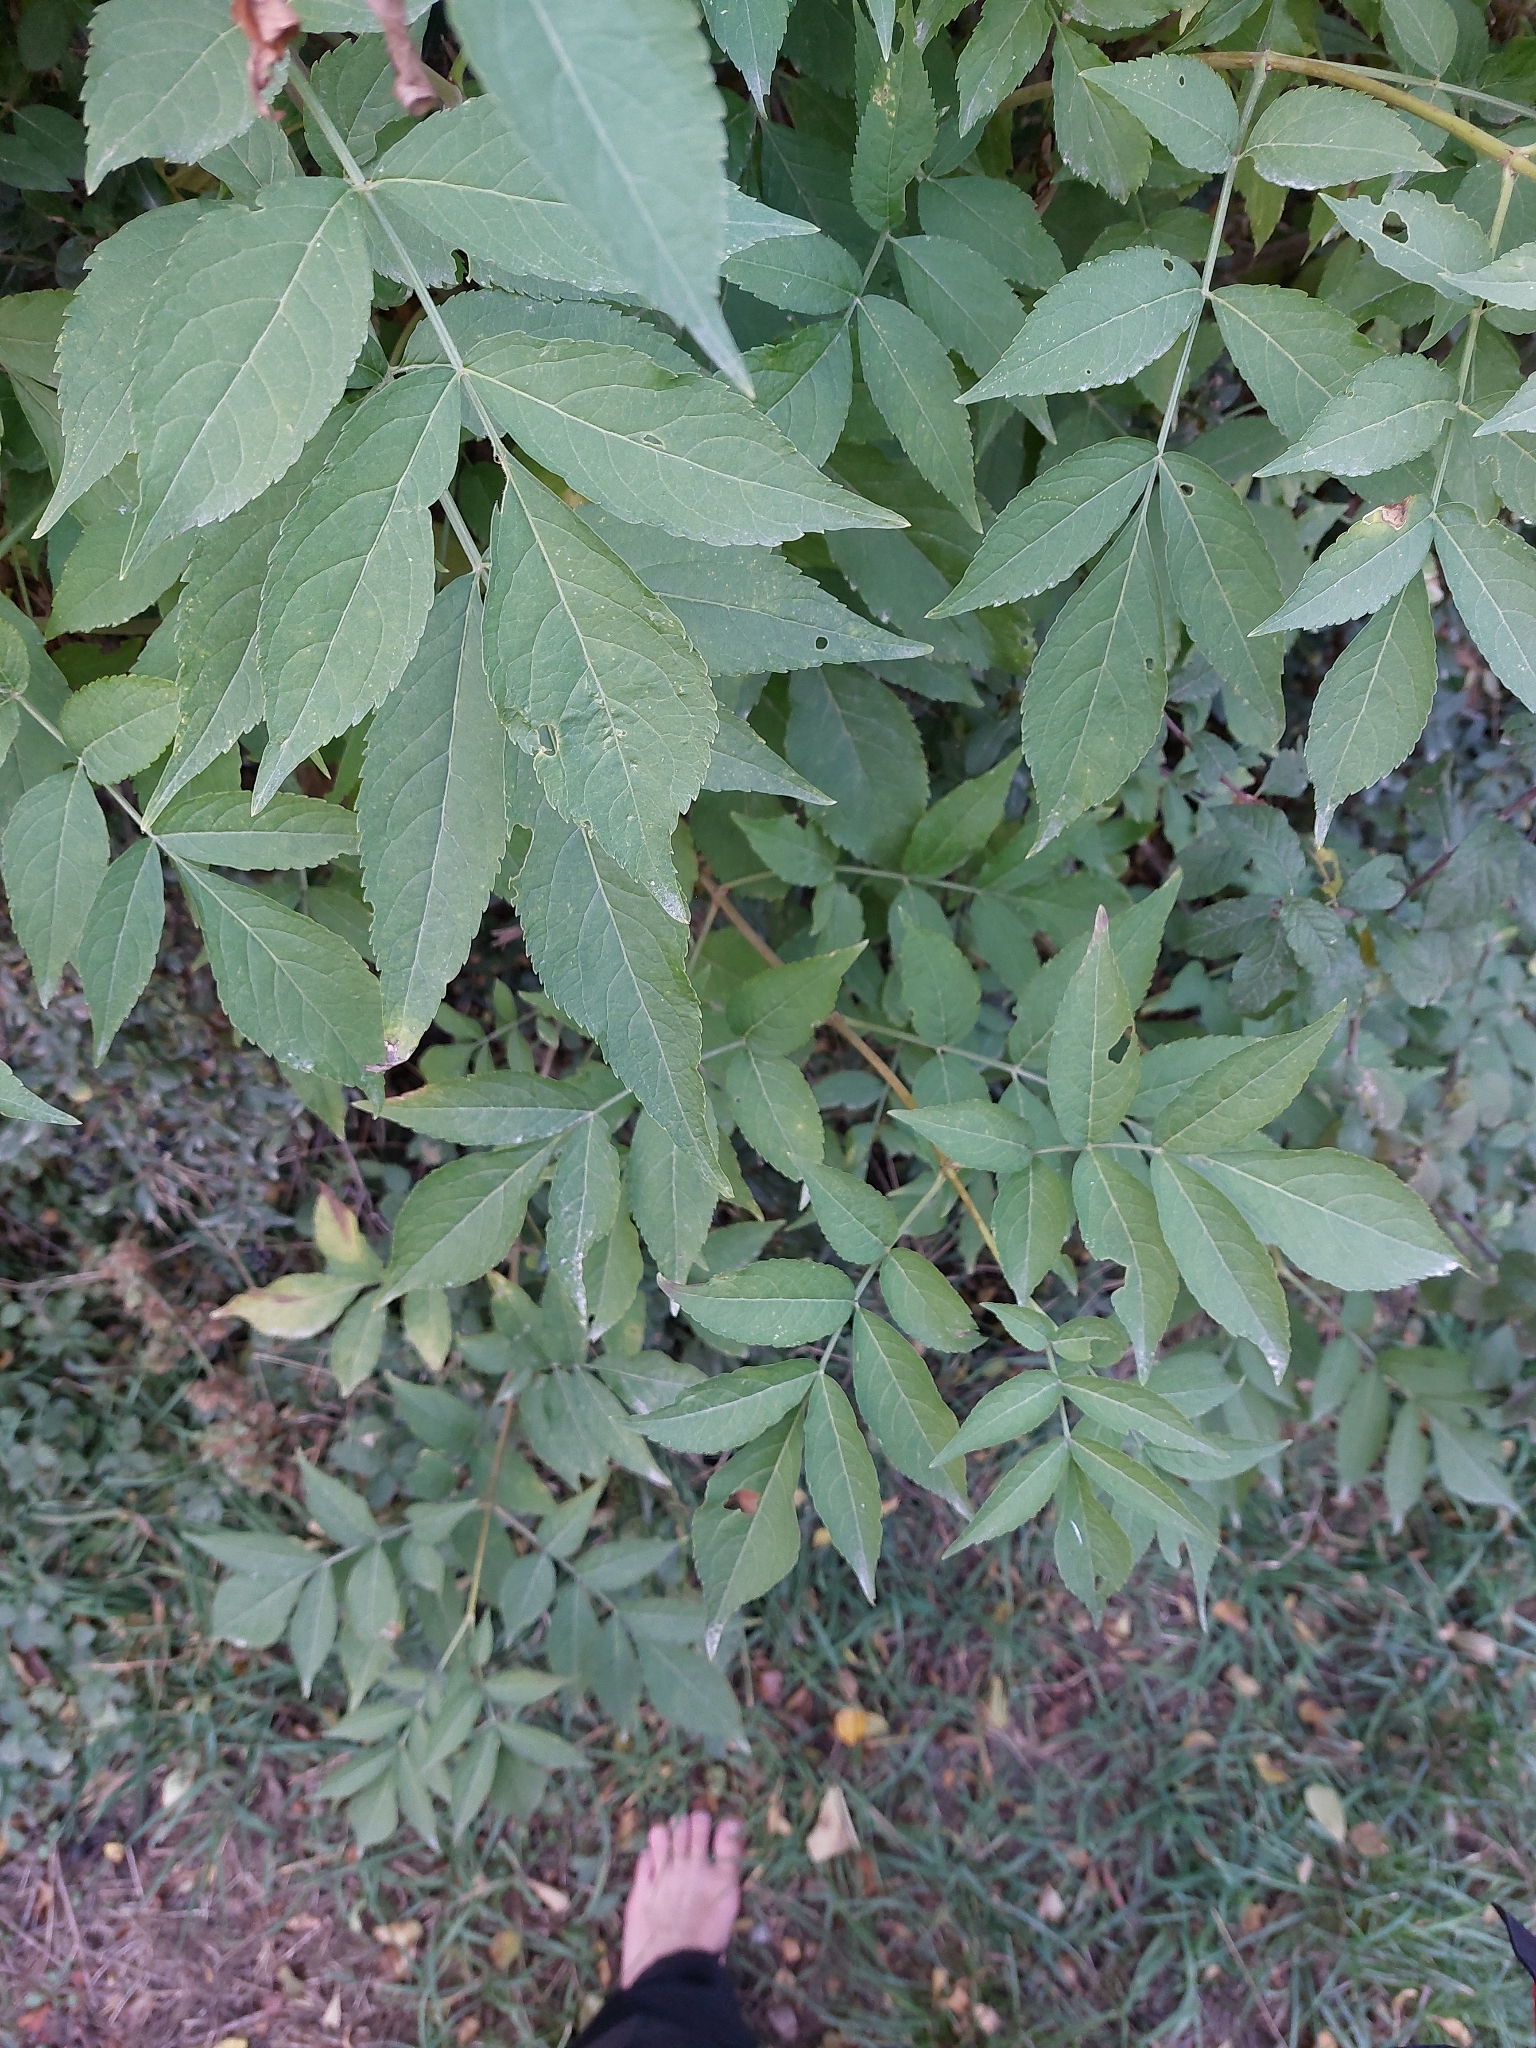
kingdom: Plantae
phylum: Tracheophyta
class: Magnoliopsida
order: Dipsacales
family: Viburnaceae
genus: Sambucus
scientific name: Sambucus nigra
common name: Elder
